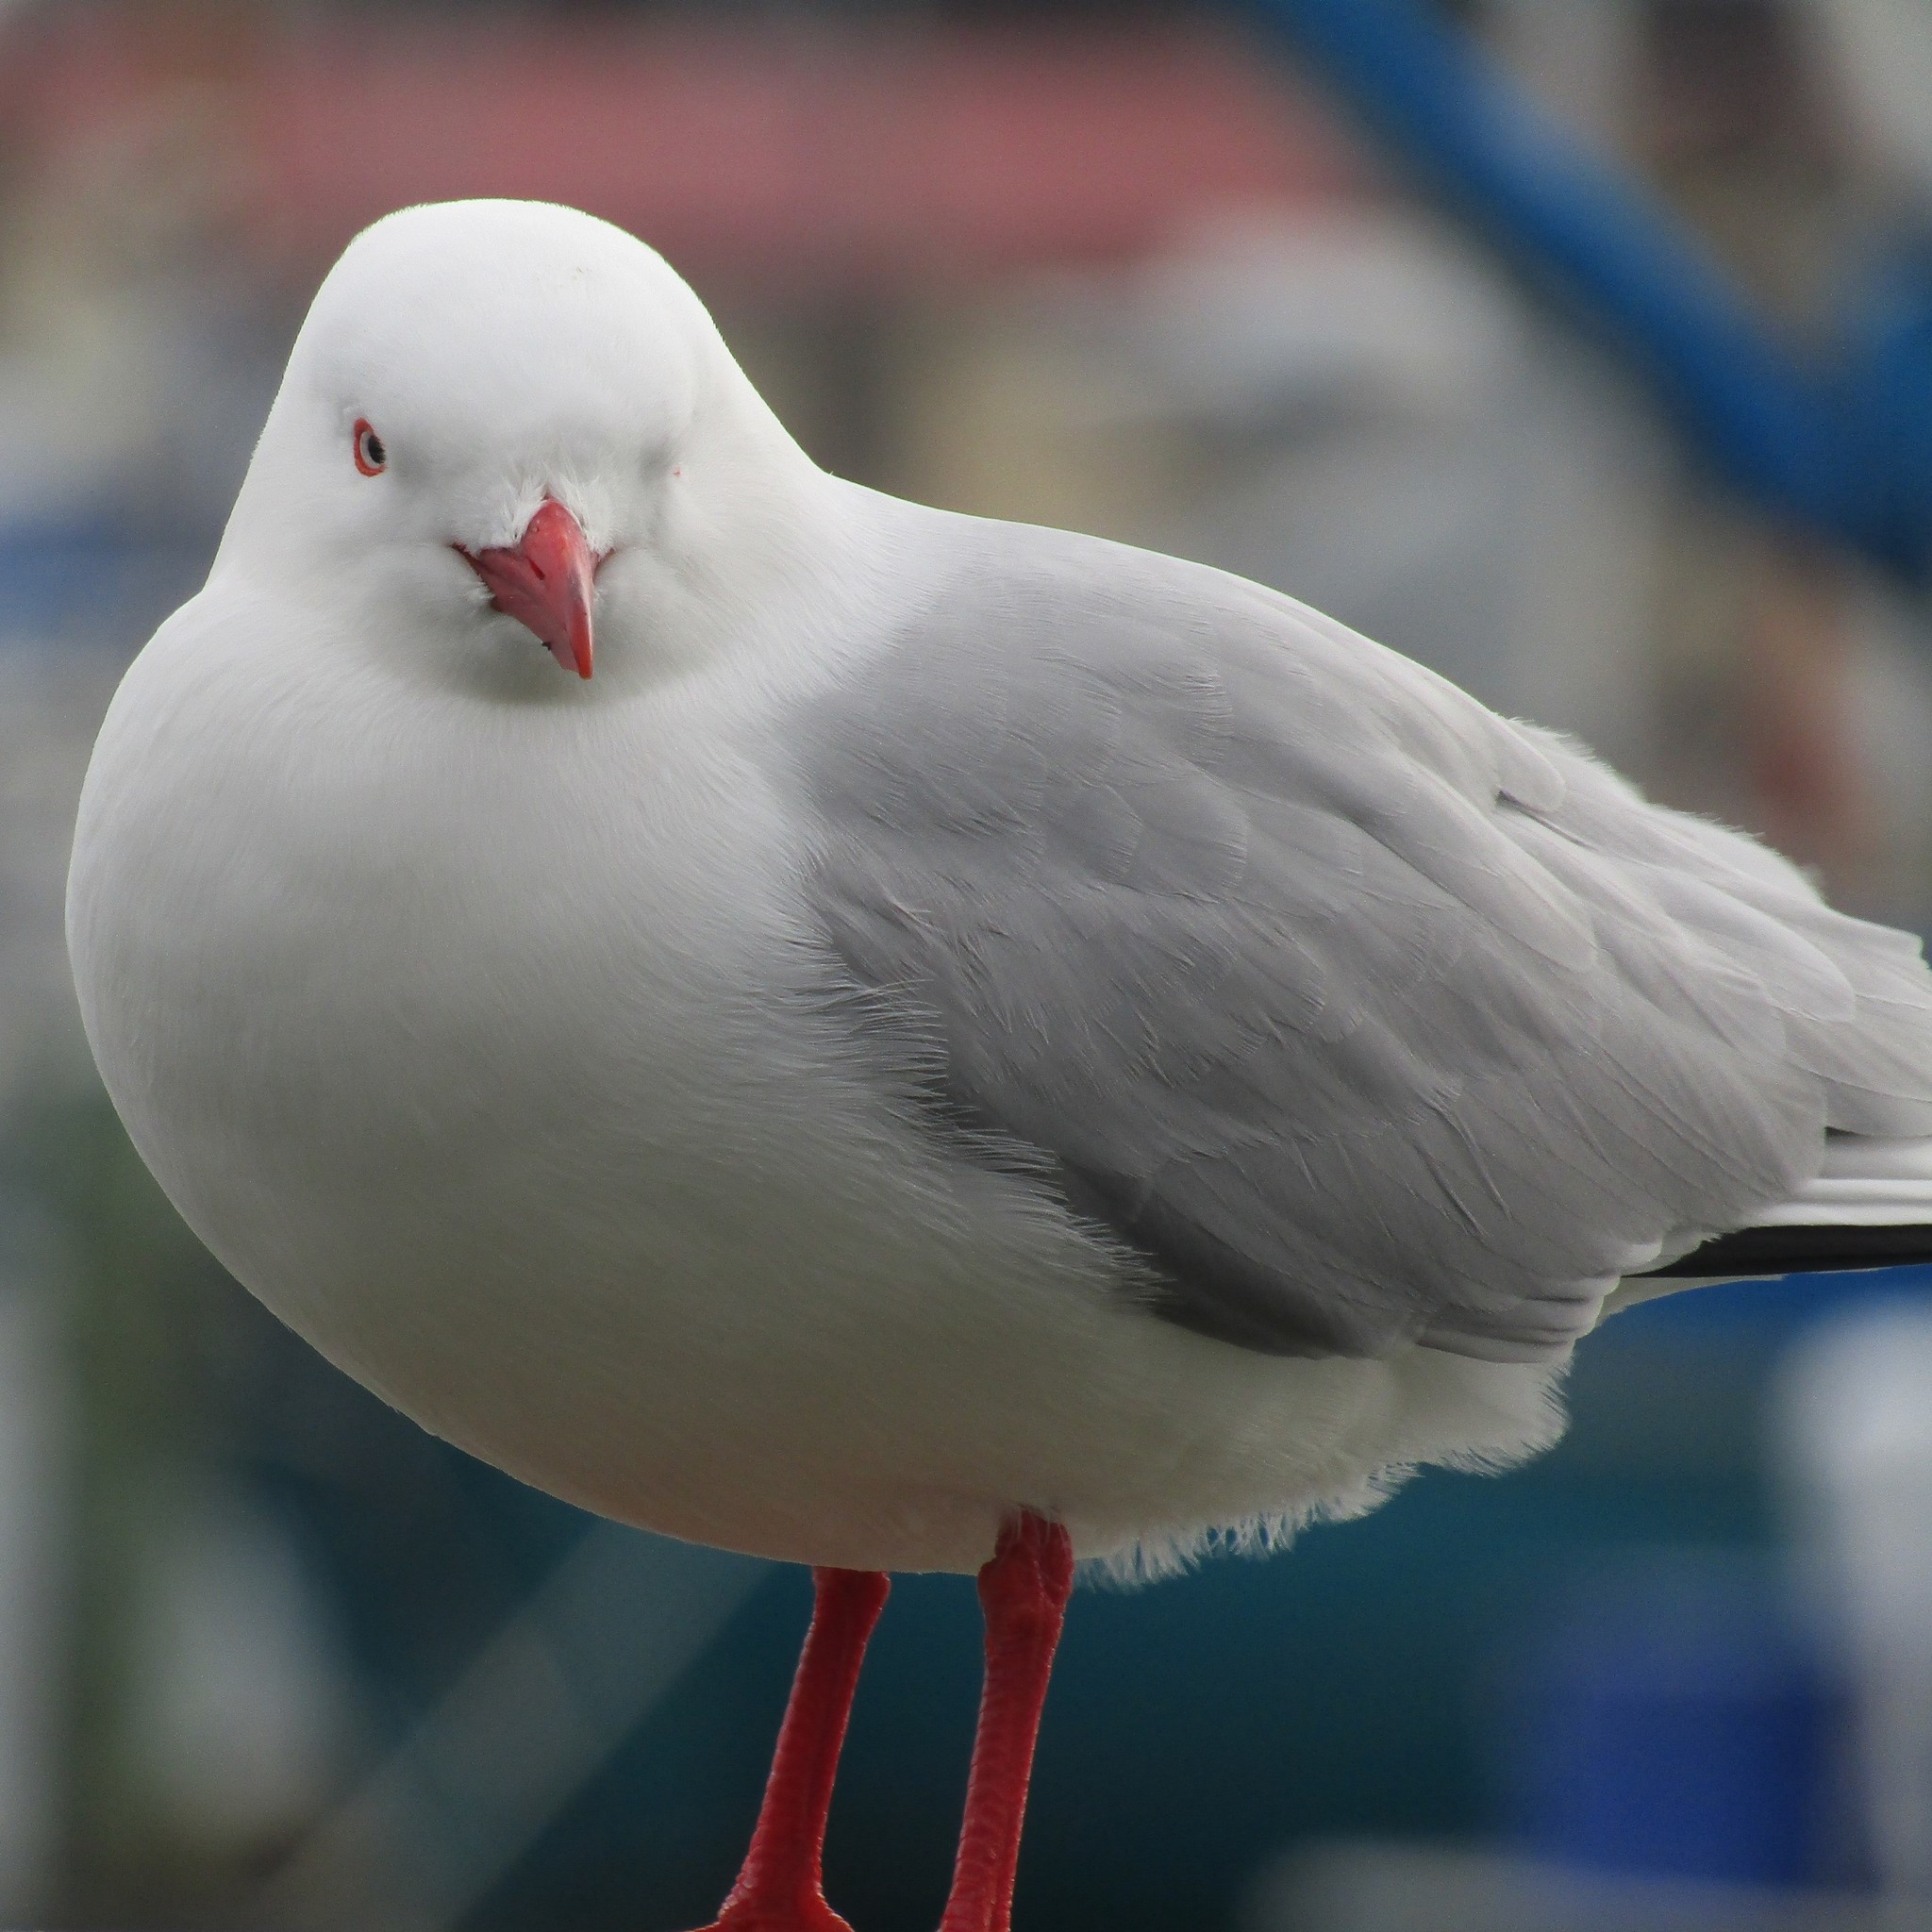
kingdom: Animalia
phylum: Chordata
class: Aves
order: Charadriiformes
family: Laridae
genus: Chroicocephalus
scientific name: Chroicocephalus novaehollandiae
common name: Silver gull
